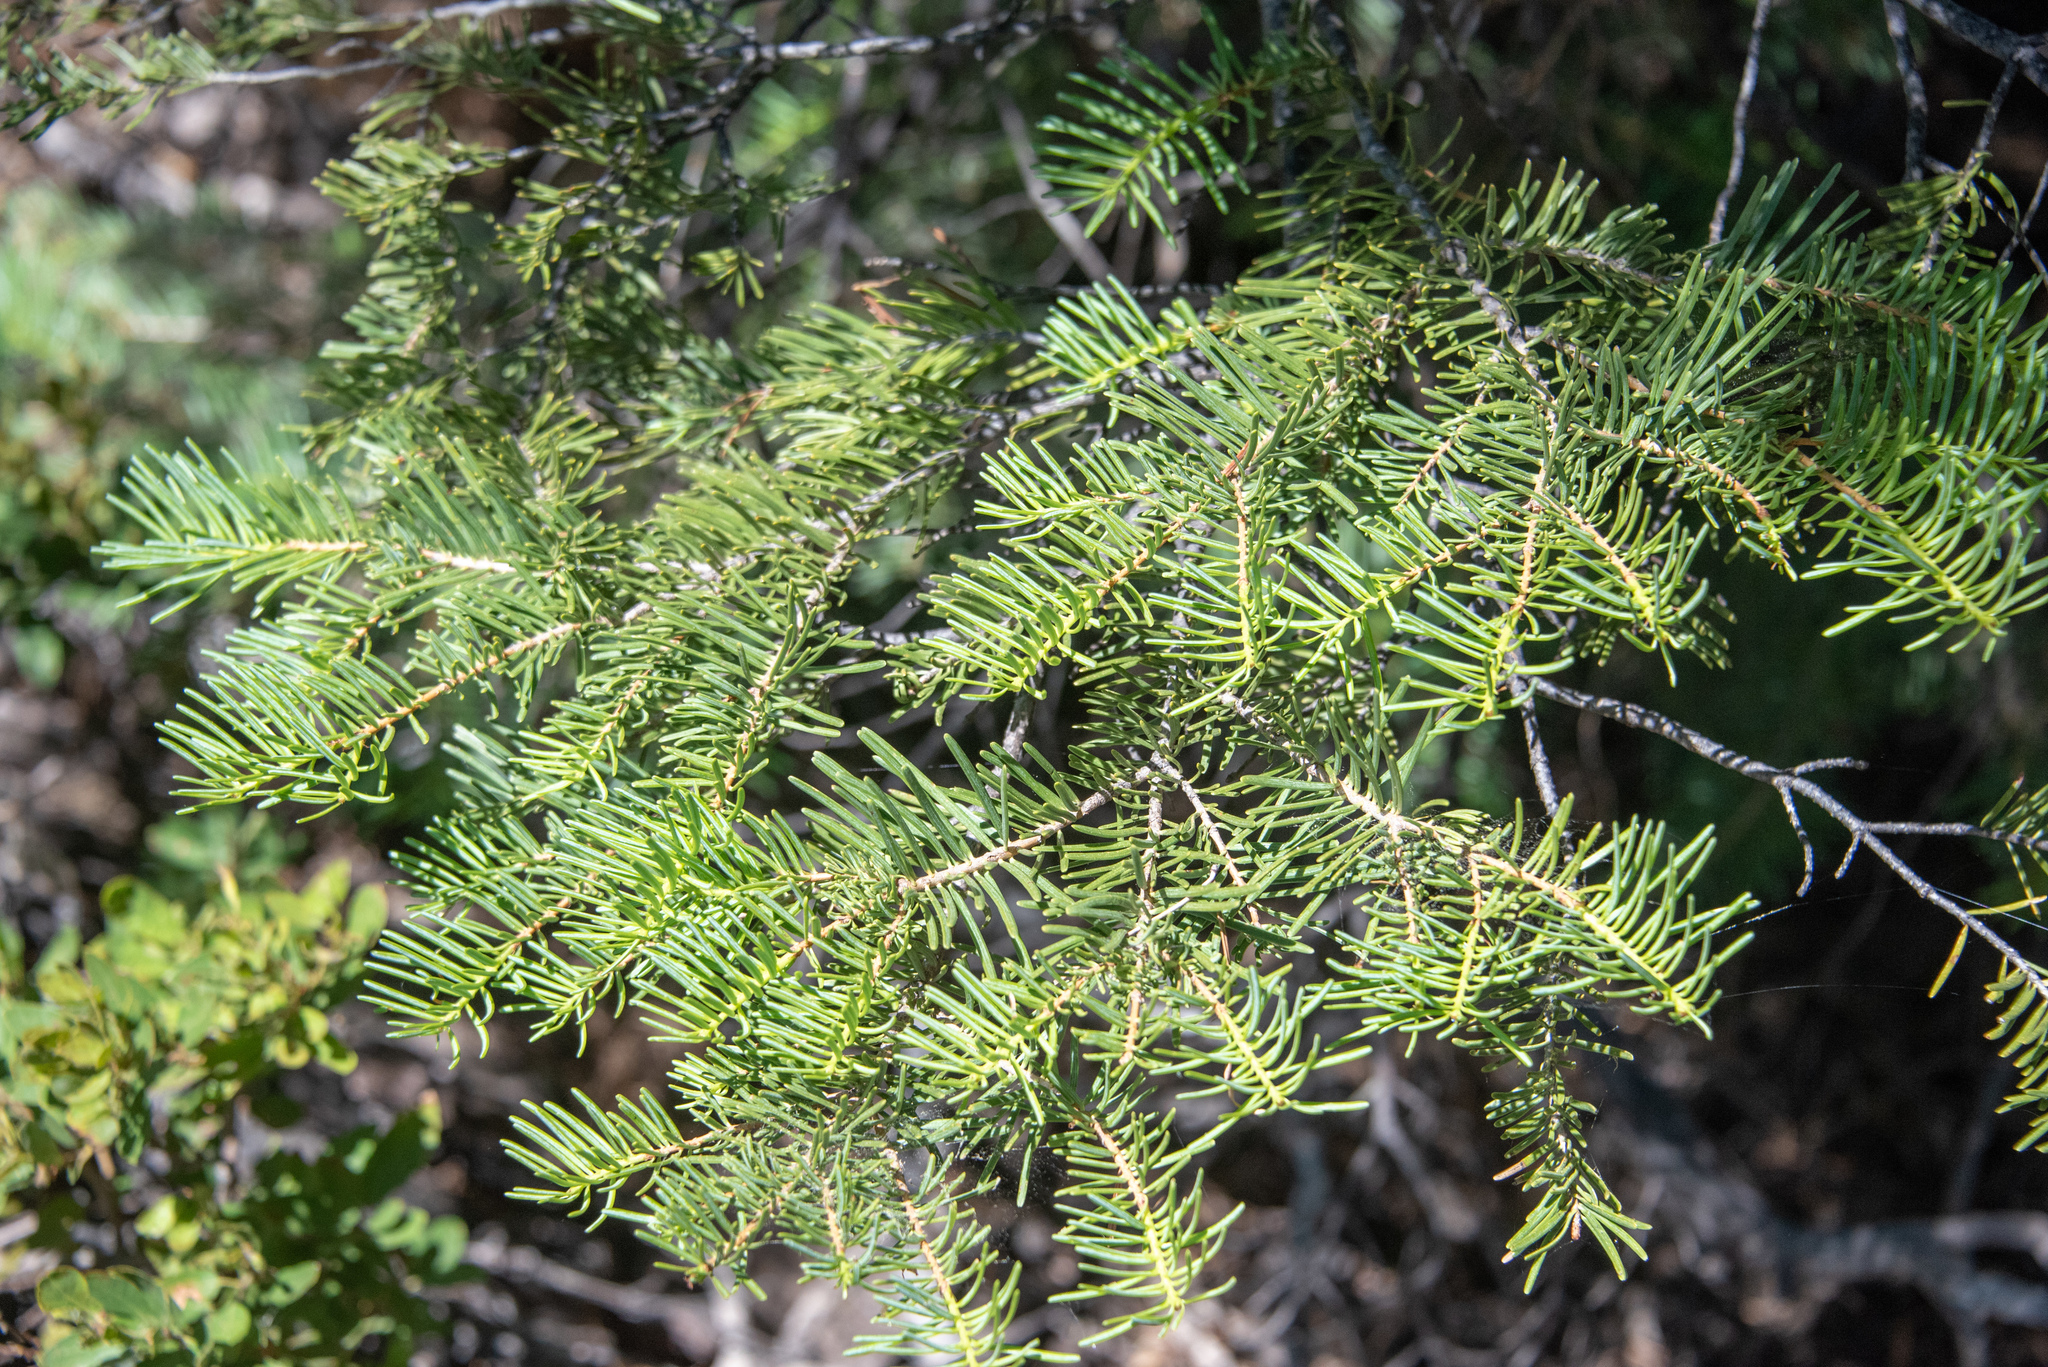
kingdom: Plantae
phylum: Tracheophyta
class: Pinopsida
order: Pinales
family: Pinaceae
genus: Abies
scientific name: Abies concolor
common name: Colorado fir
